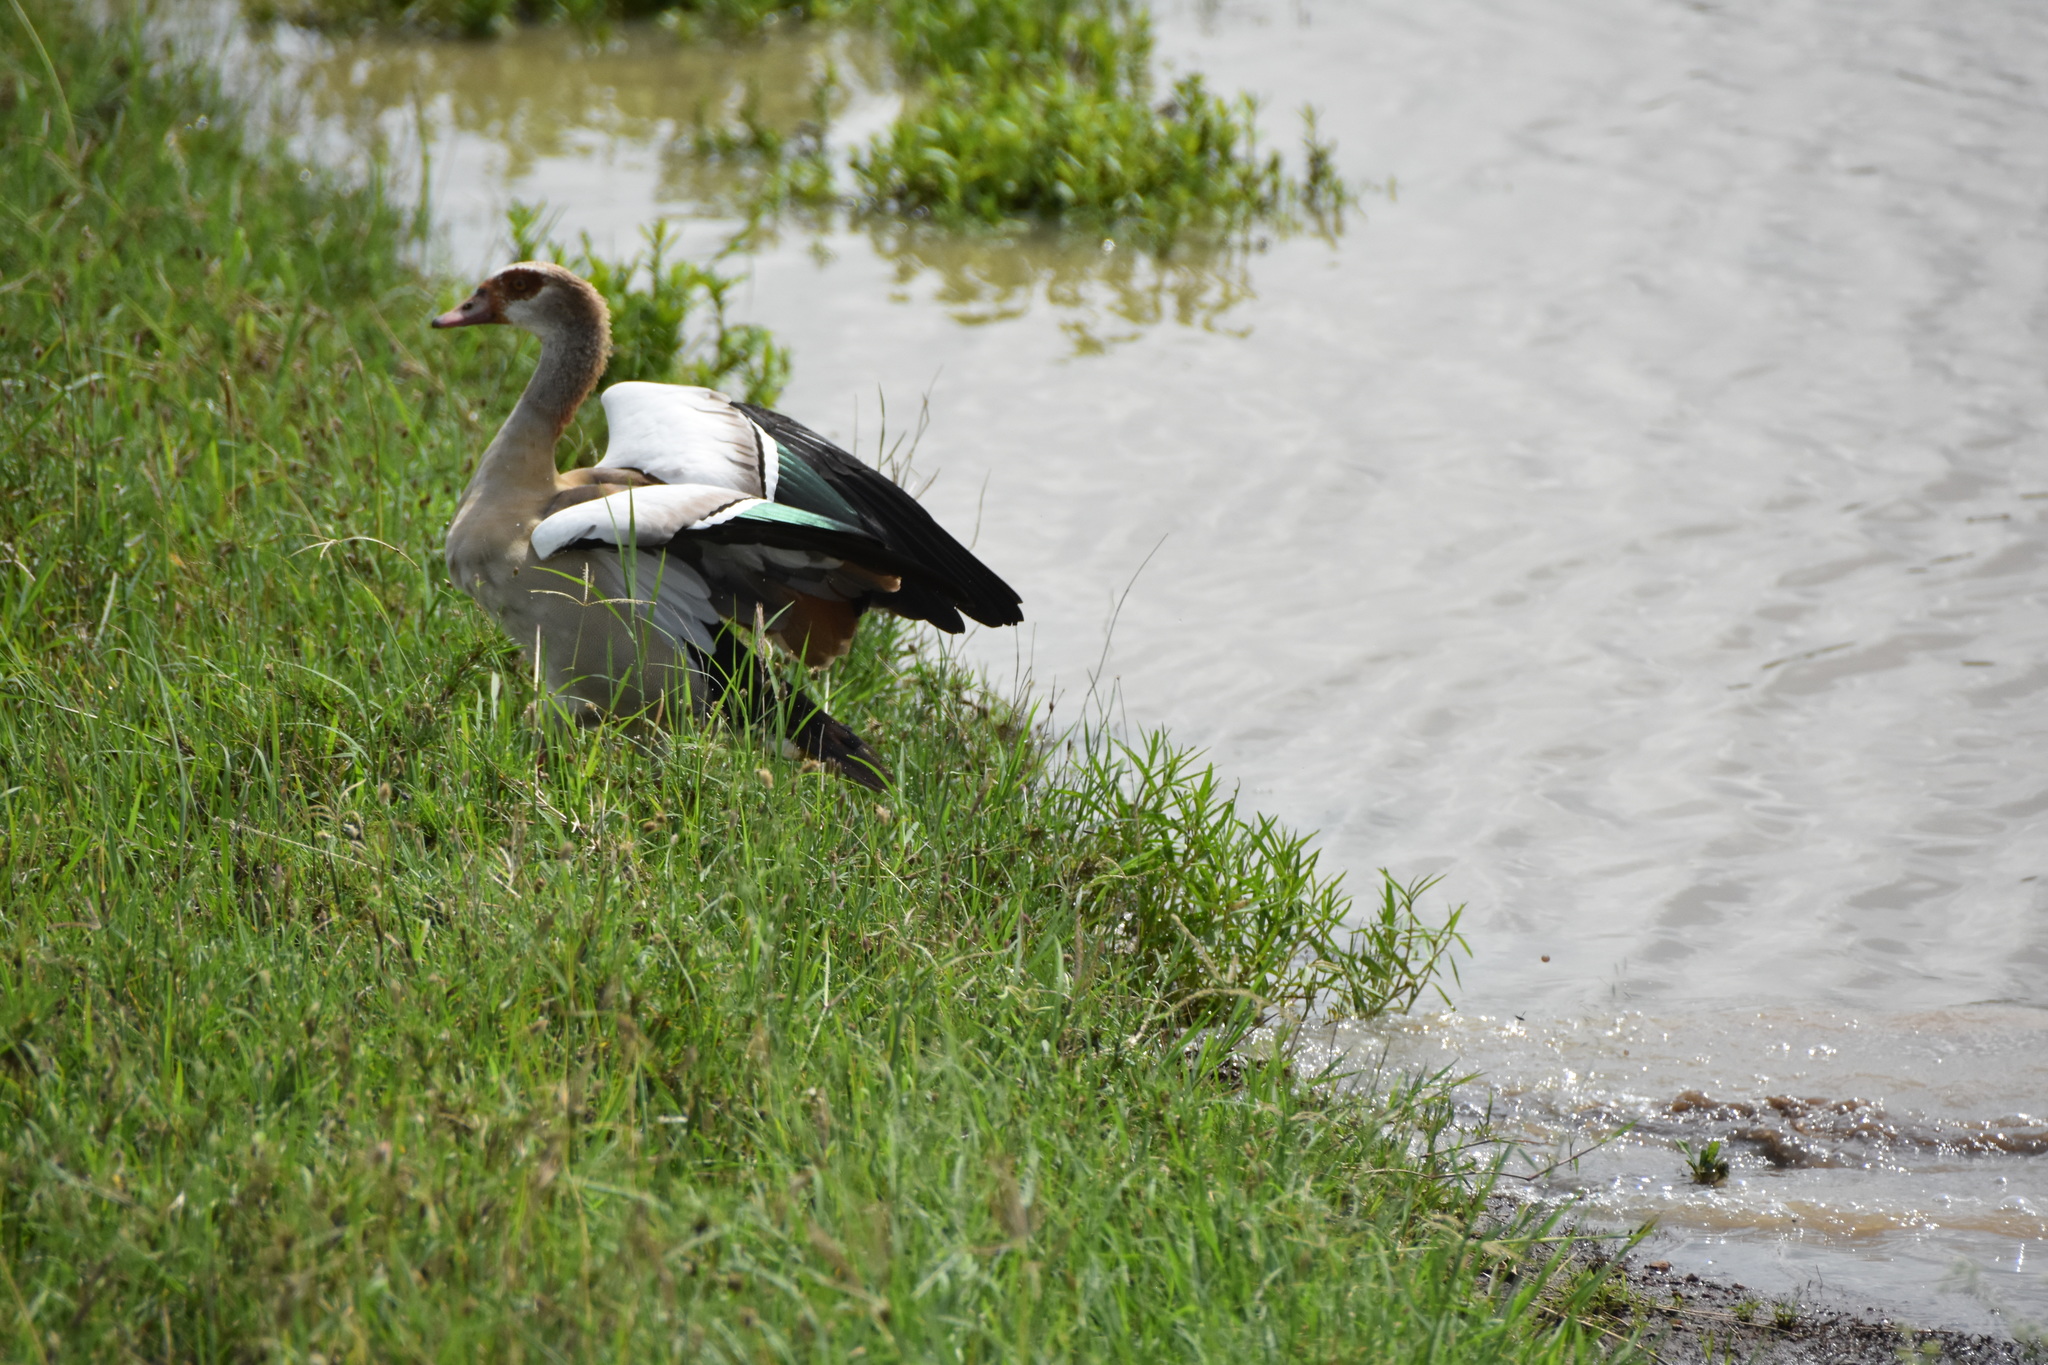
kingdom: Animalia
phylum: Chordata
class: Aves
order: Anseriformes
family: Anatidae
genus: Alopochen
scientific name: Alopochen aegyptiaca
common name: Egyptian goose
